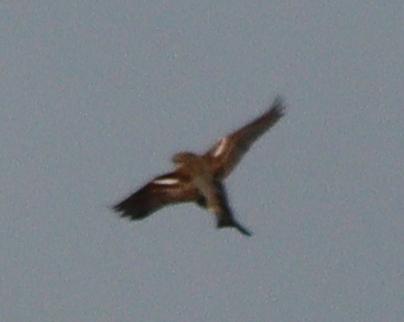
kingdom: Animalia
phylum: Chordata
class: Aves
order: Passeriformes
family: Fringillidae
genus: Fringilla
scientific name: Fringilla coelebs
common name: Common chaffinch
